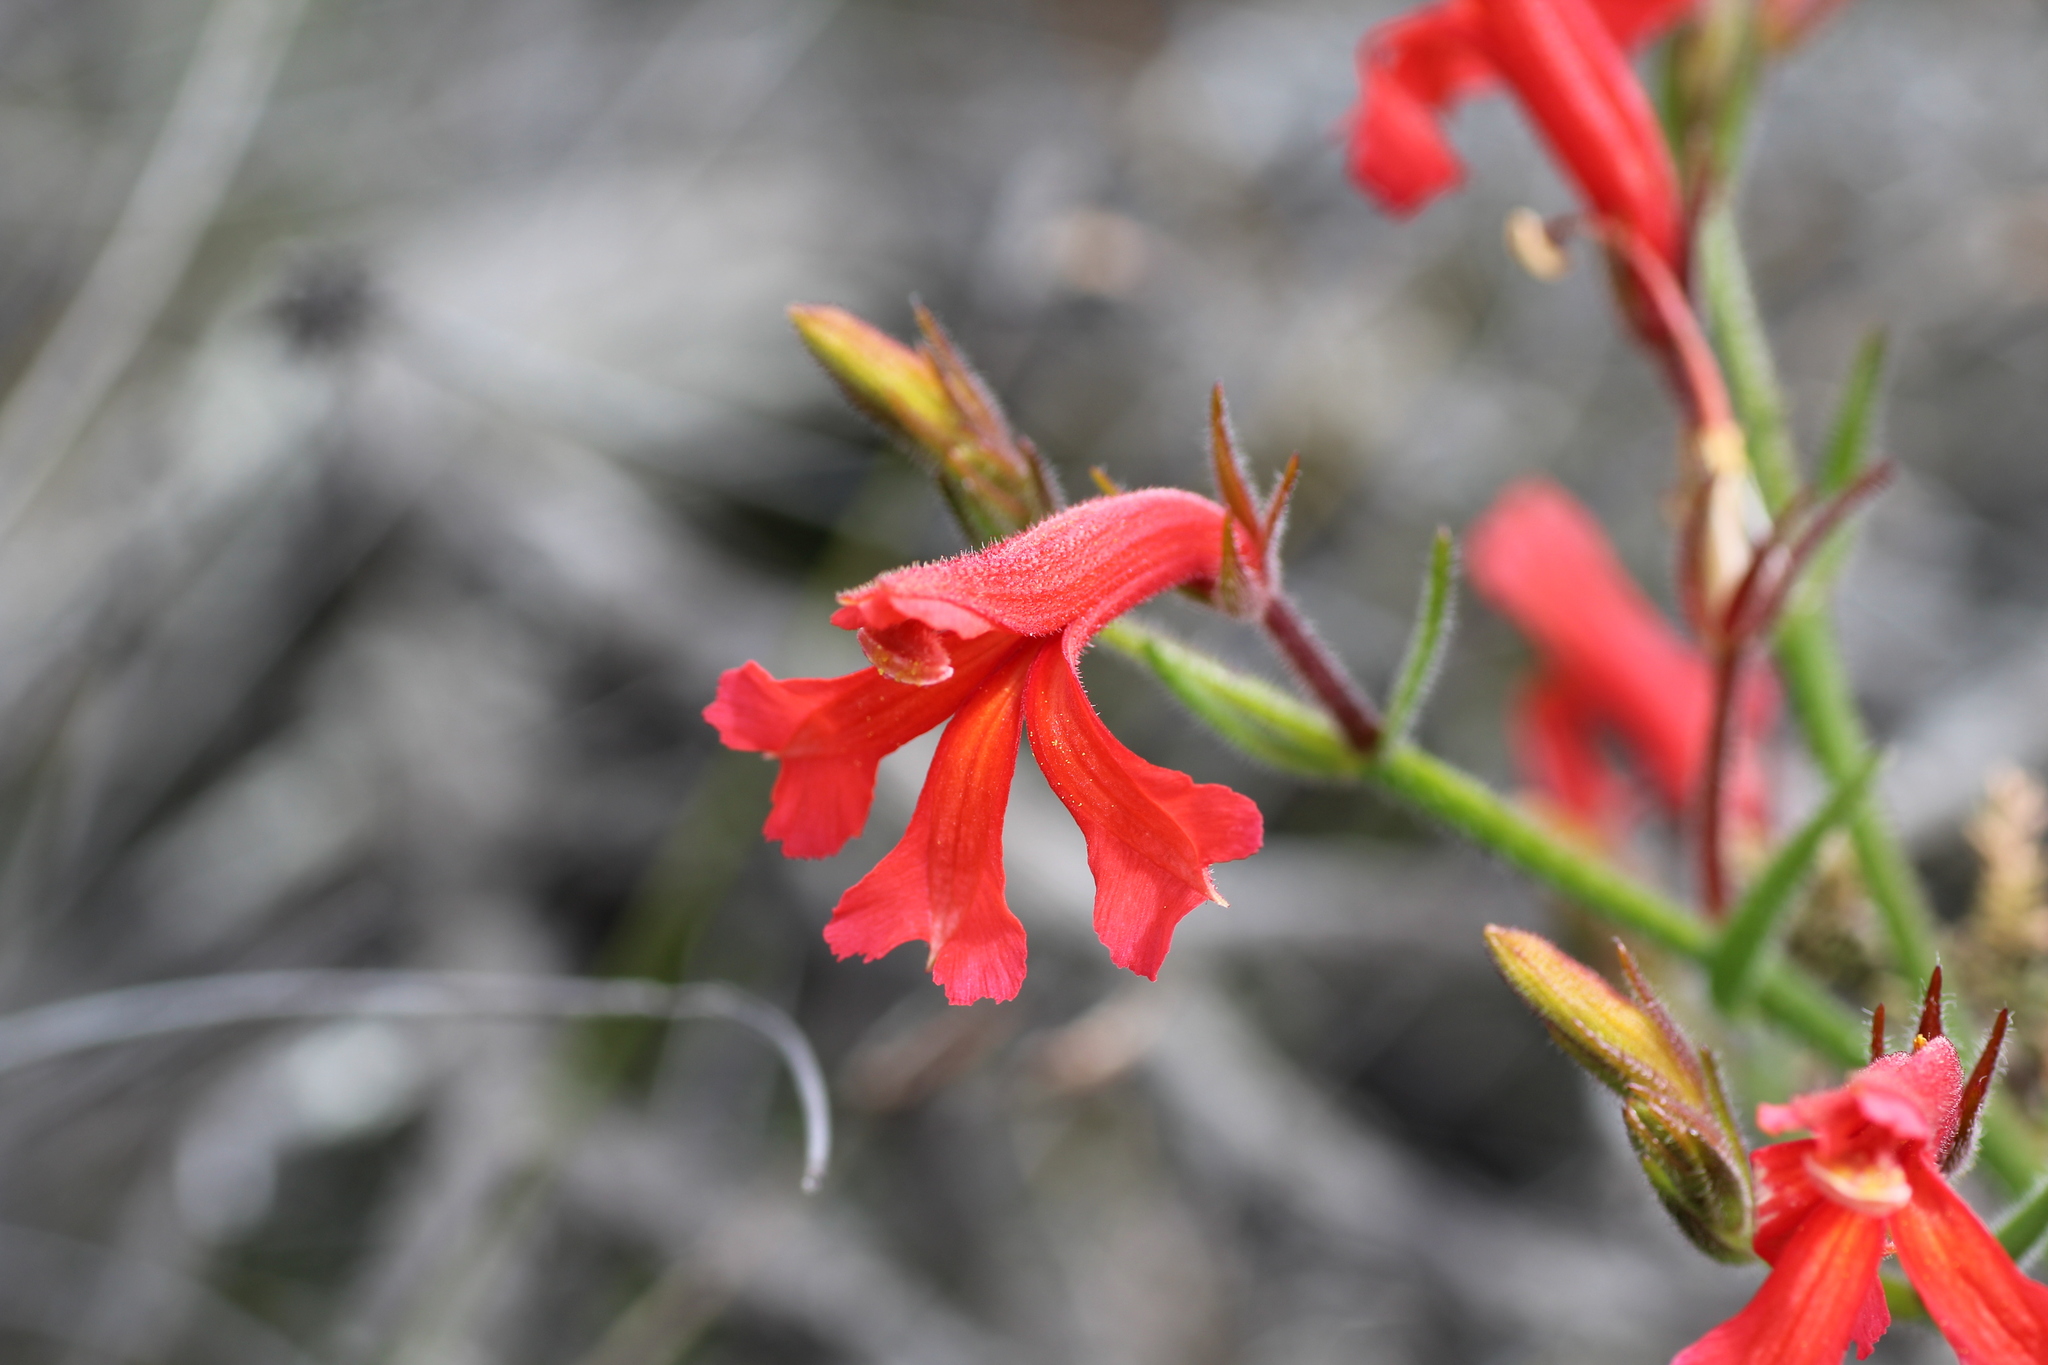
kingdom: Plantae
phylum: Tracheophyta
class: Magnoliopsida
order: Asterales
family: Goodeniaceae
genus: Lechenaultia
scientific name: Lechenaultia hirsuta
